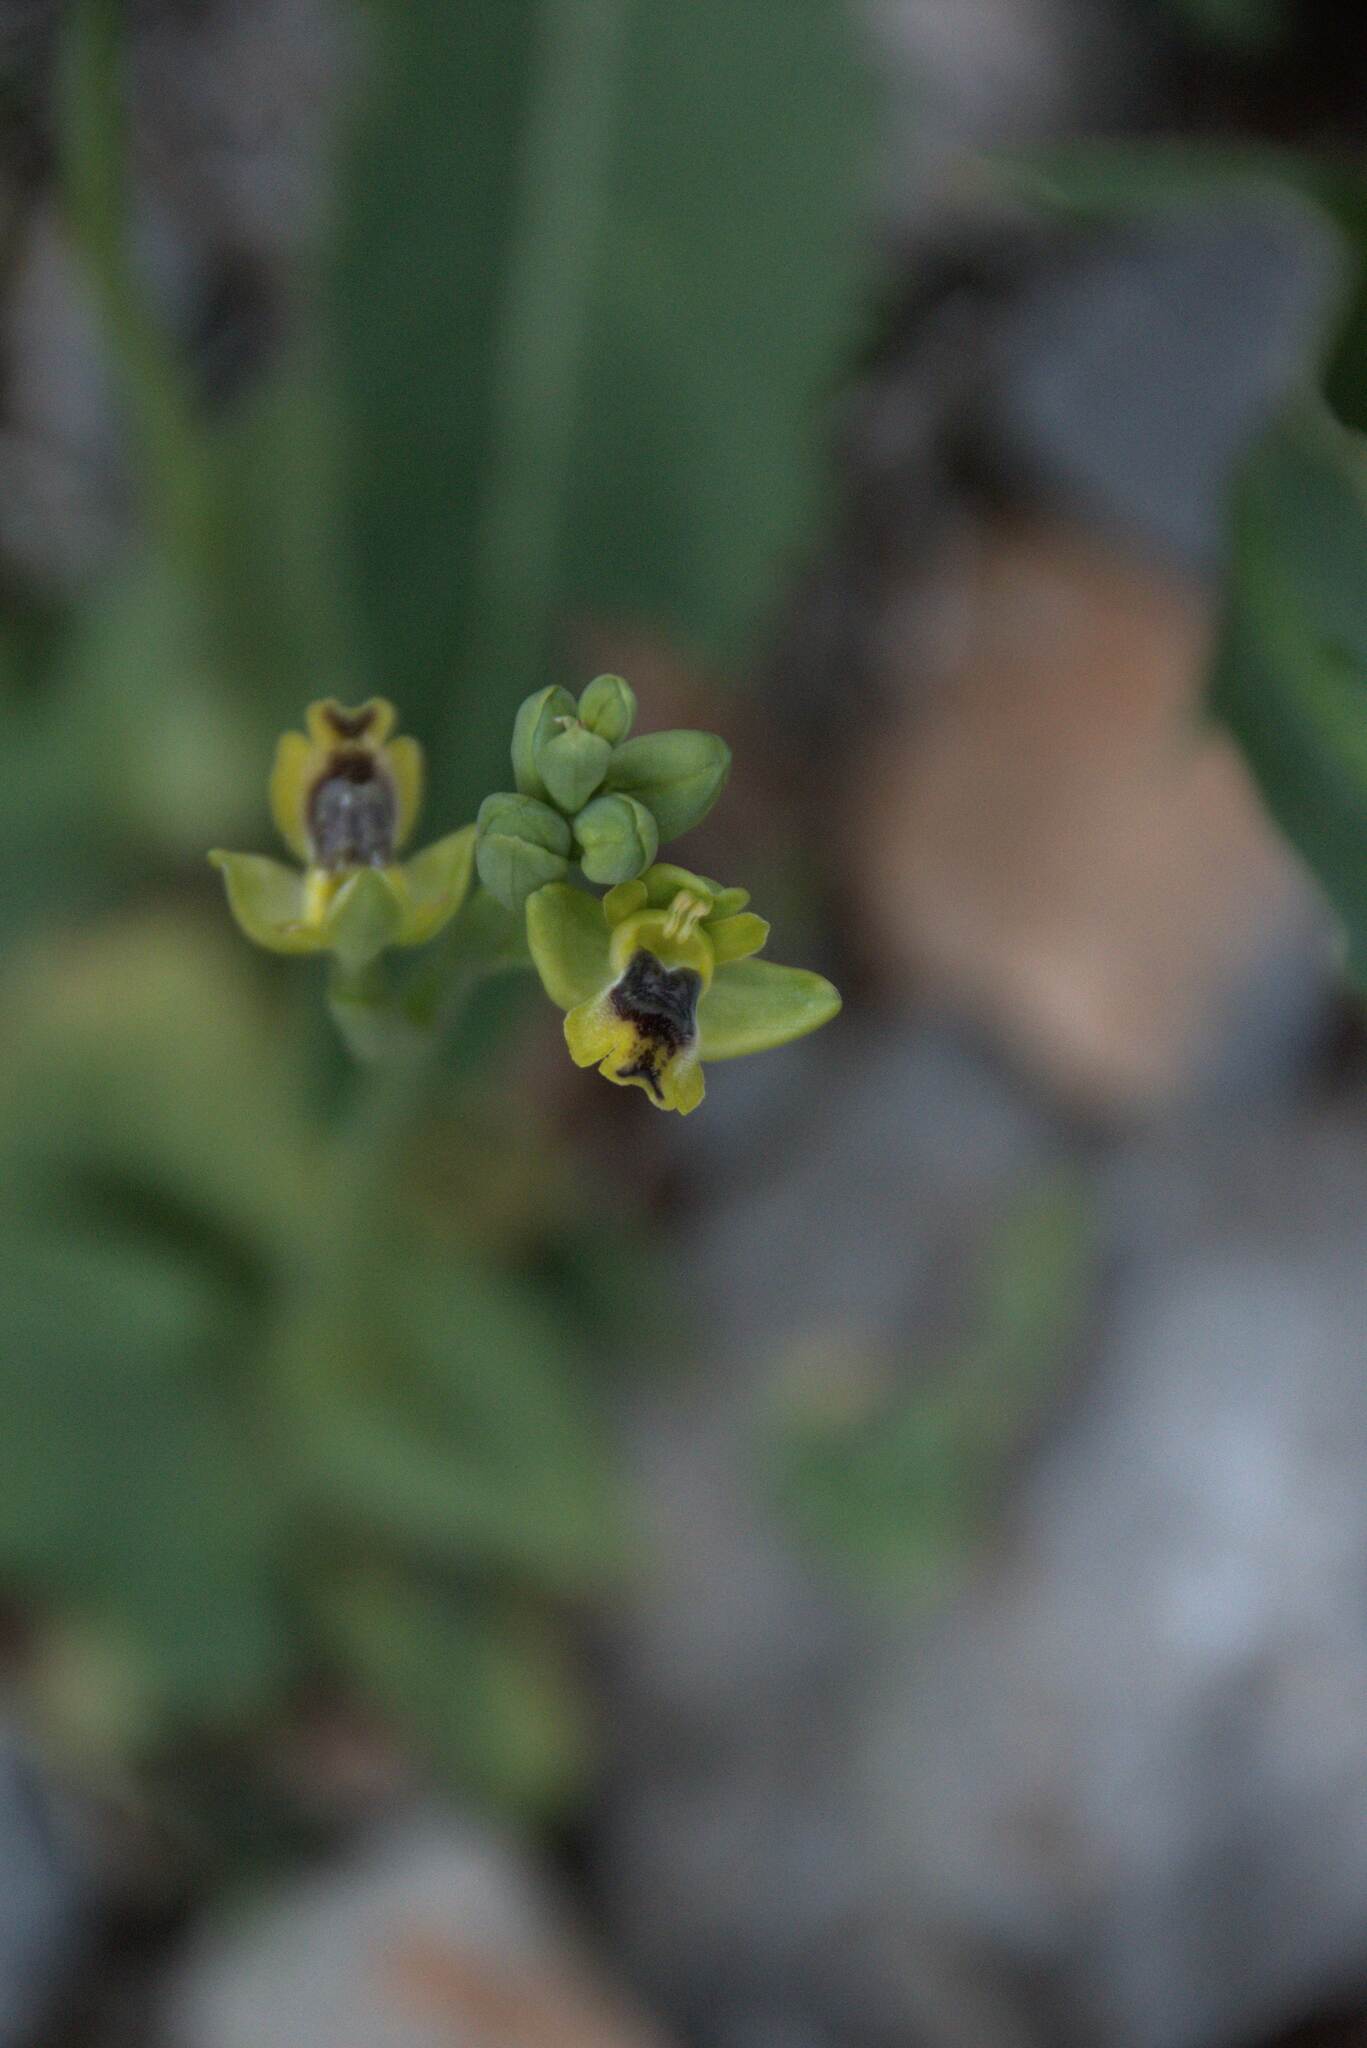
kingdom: Plantae
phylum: Tracheophyta
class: Liliopsida
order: Asparagales
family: Orchidaceae
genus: Ophrys
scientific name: Ophrys lutea
